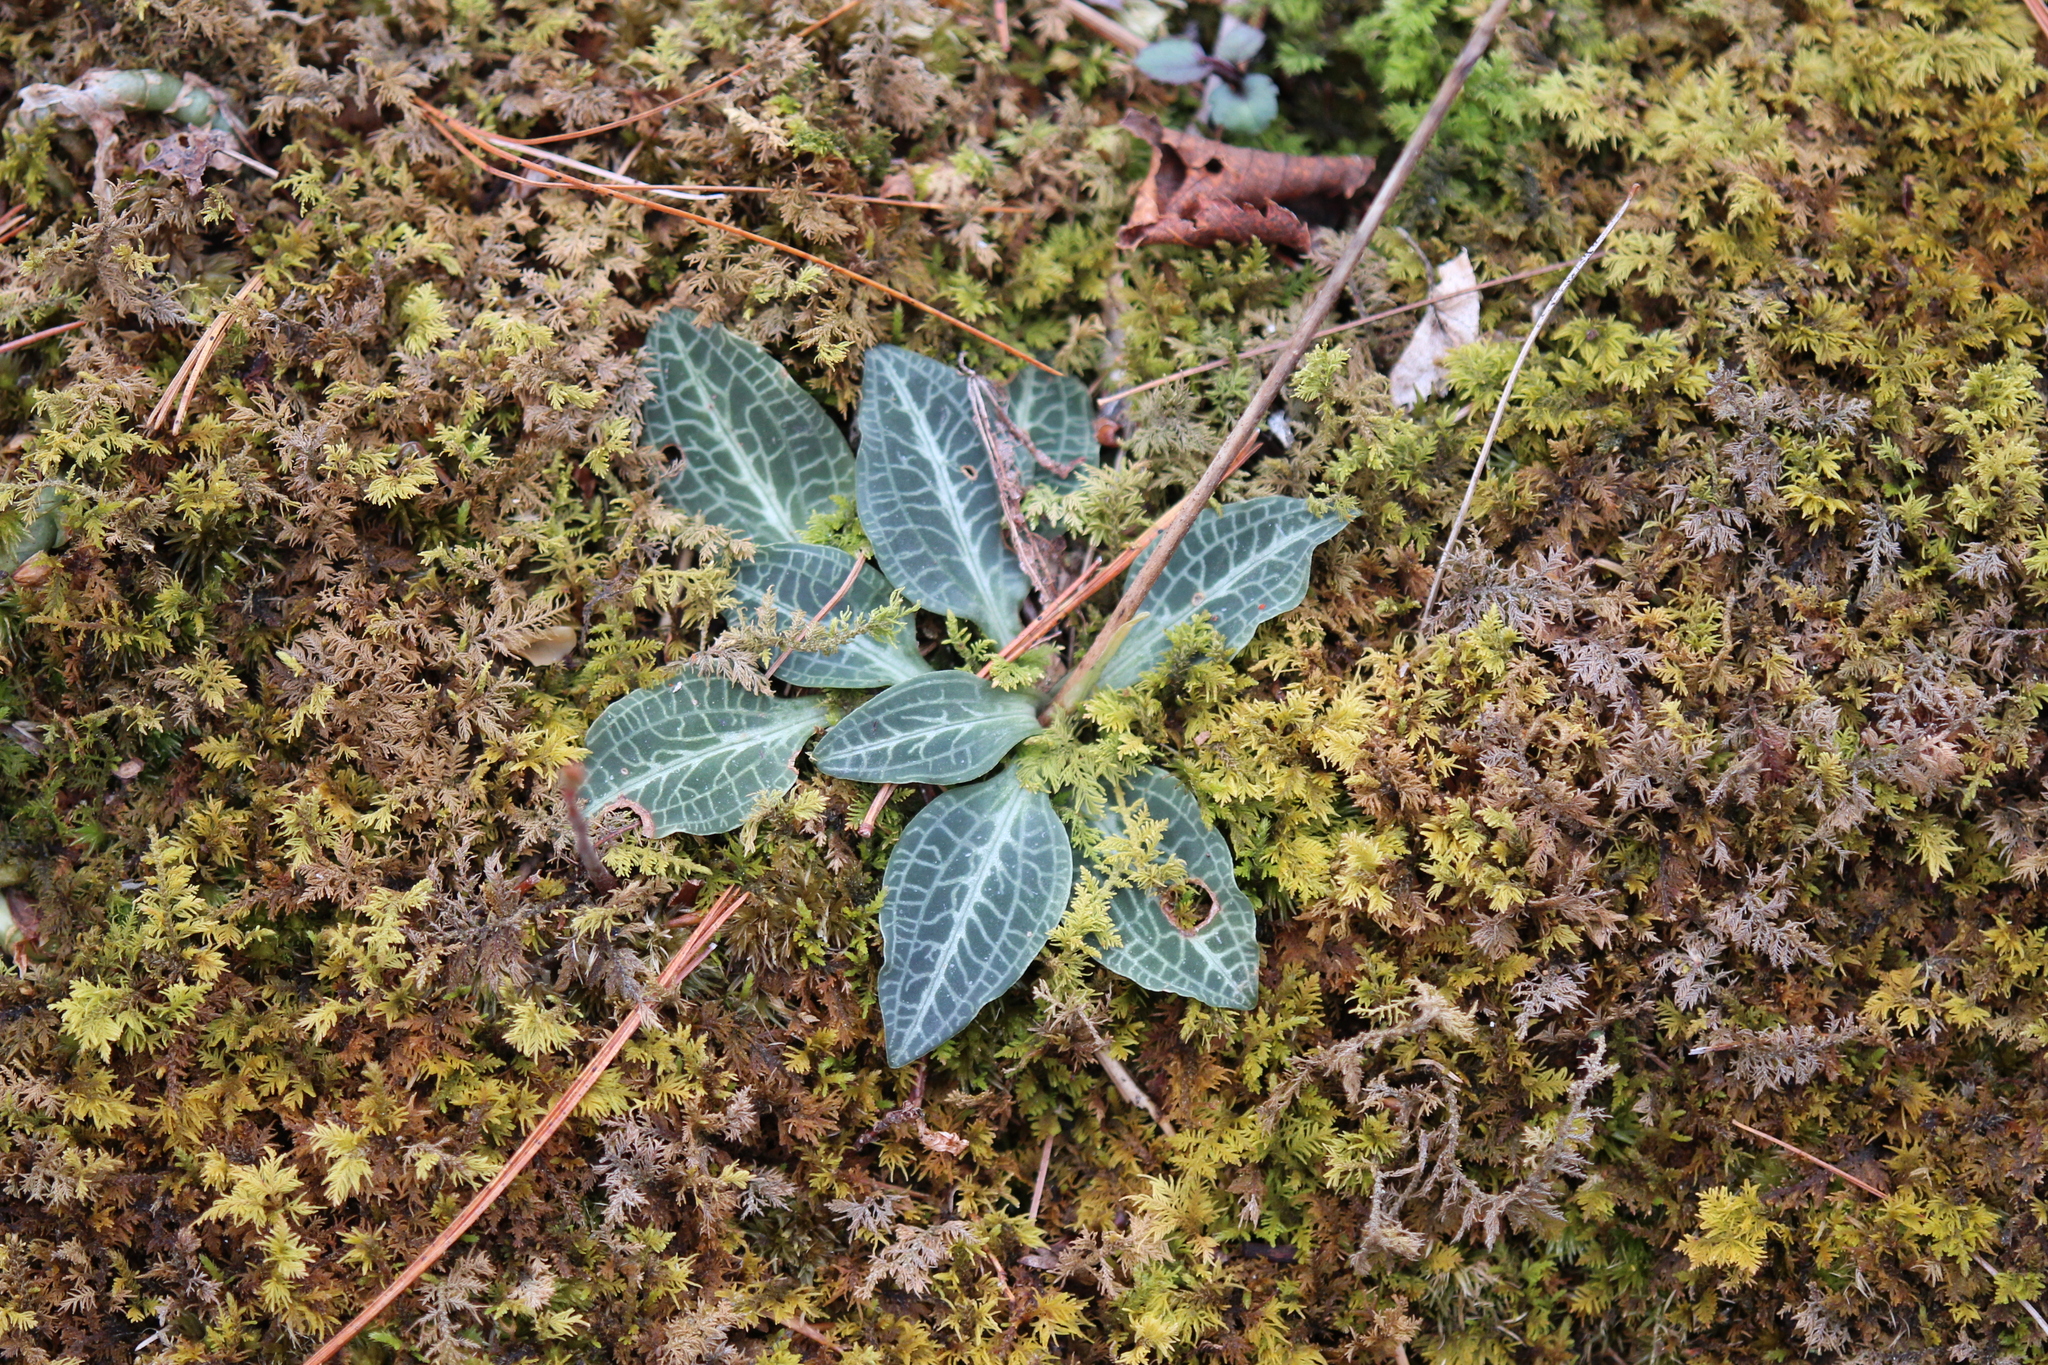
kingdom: Plantae
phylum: Tracheophyta
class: Liliopsida
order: Asparagales
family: Orchidaceae
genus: Goodyera
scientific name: Goodyera pubescens
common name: Downy rattlesnake-plantain
